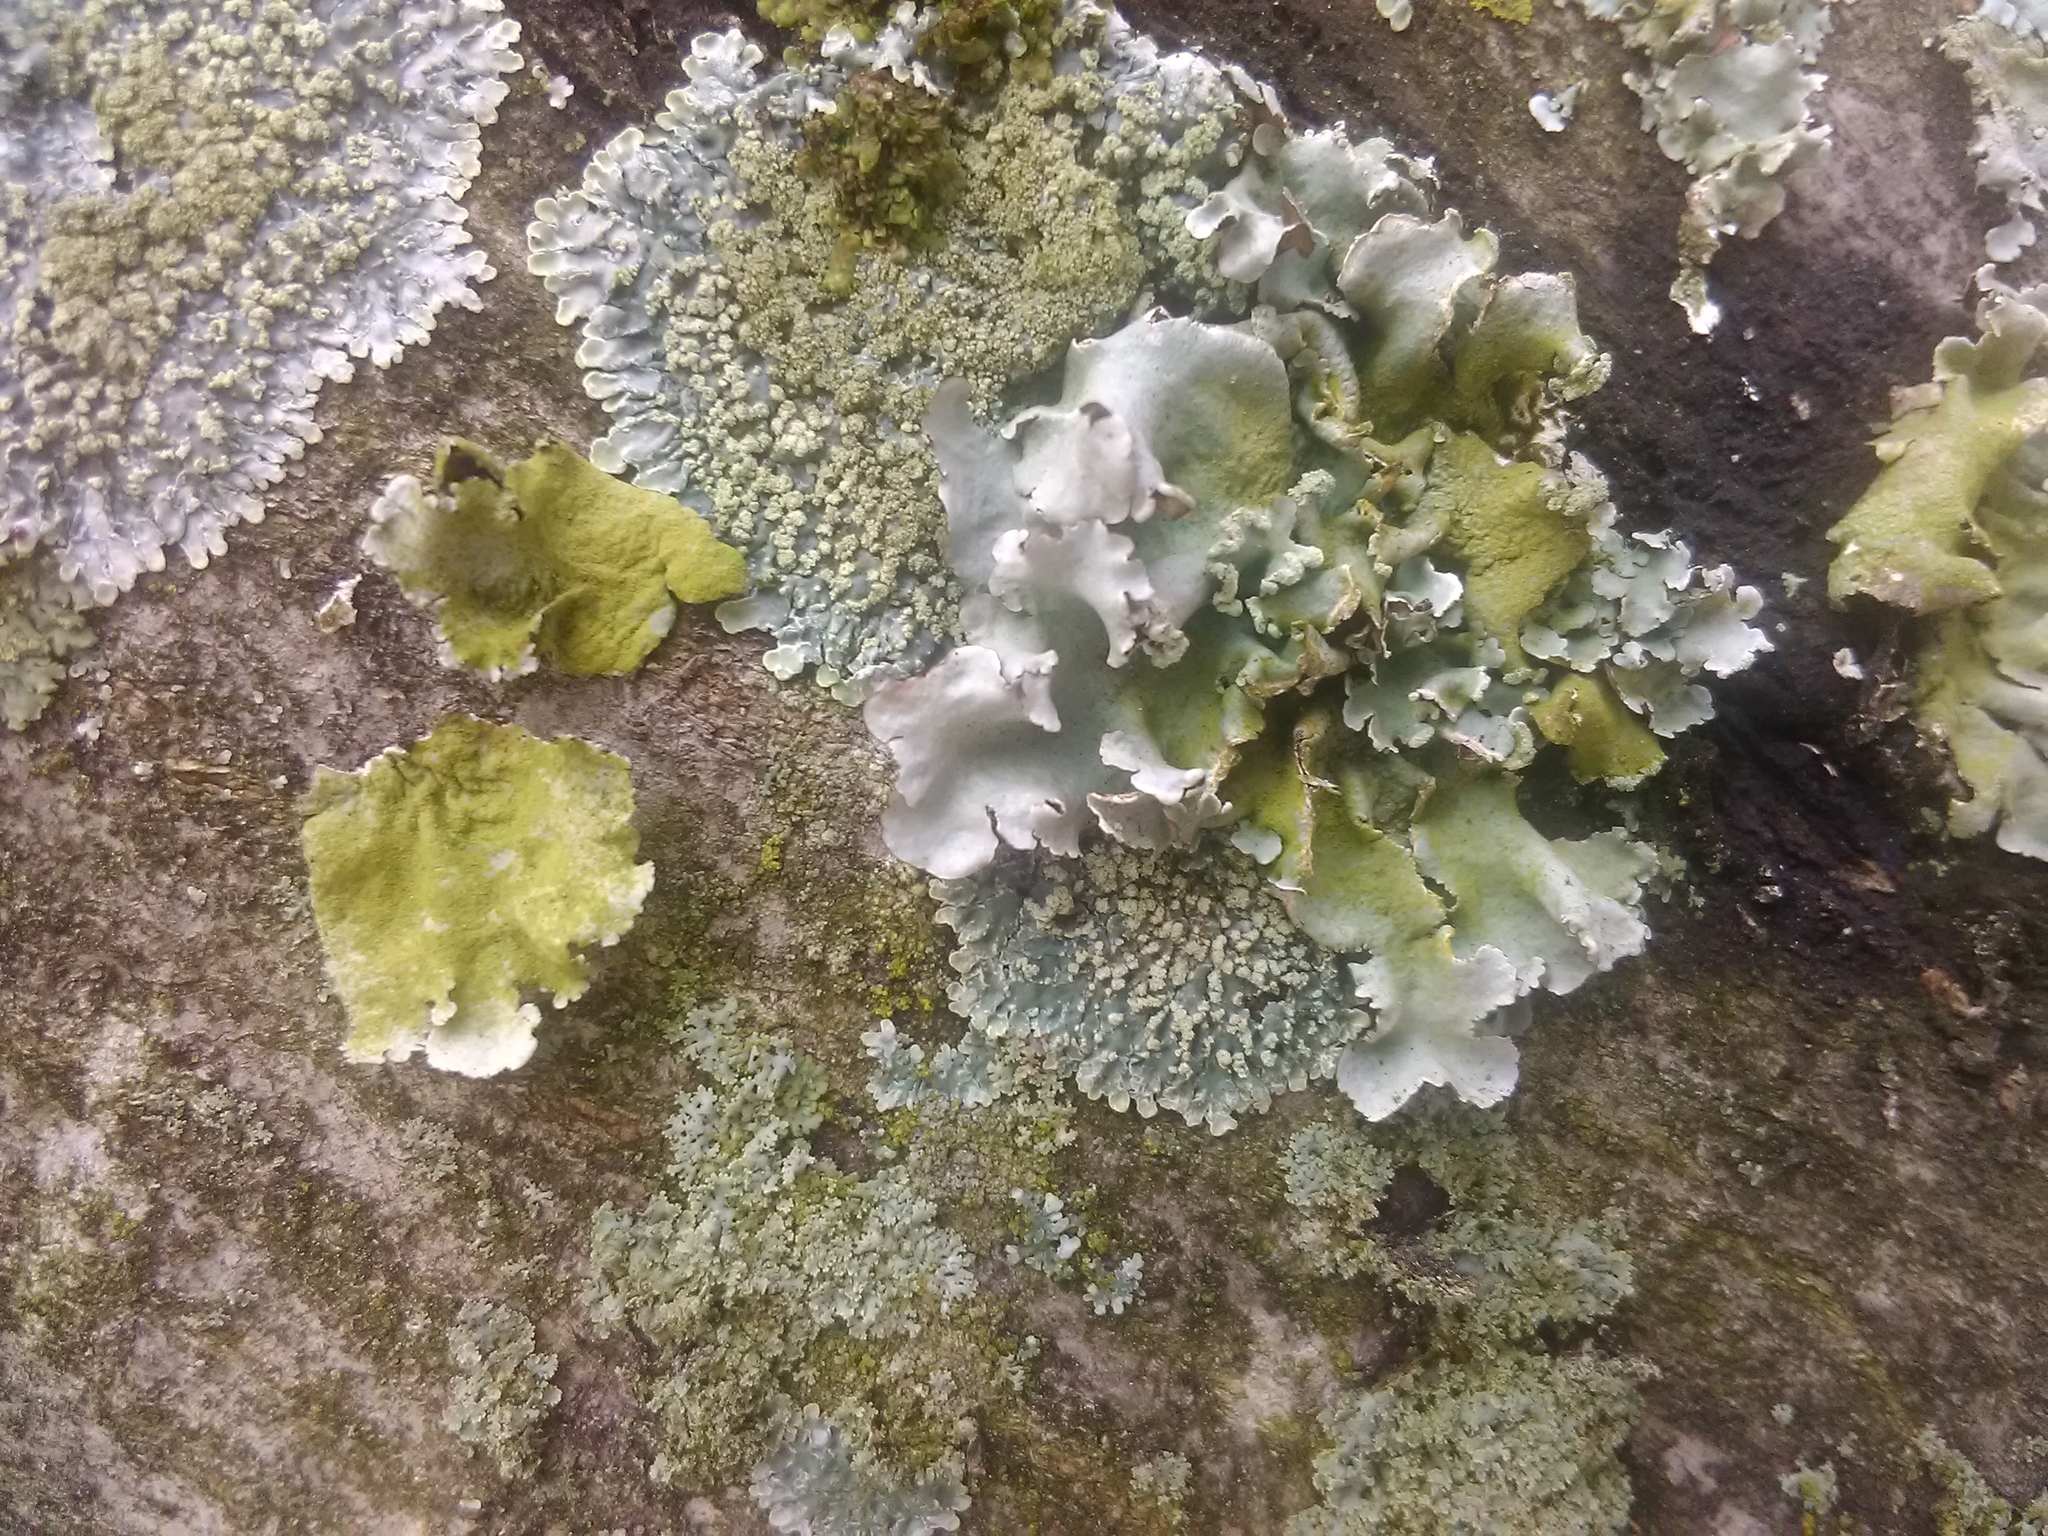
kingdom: Fungi
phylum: Ascomycota
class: Lecanoromycetes
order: Lecanorales
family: Parmeliaceae
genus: Parmotrema
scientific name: Parmotrema
